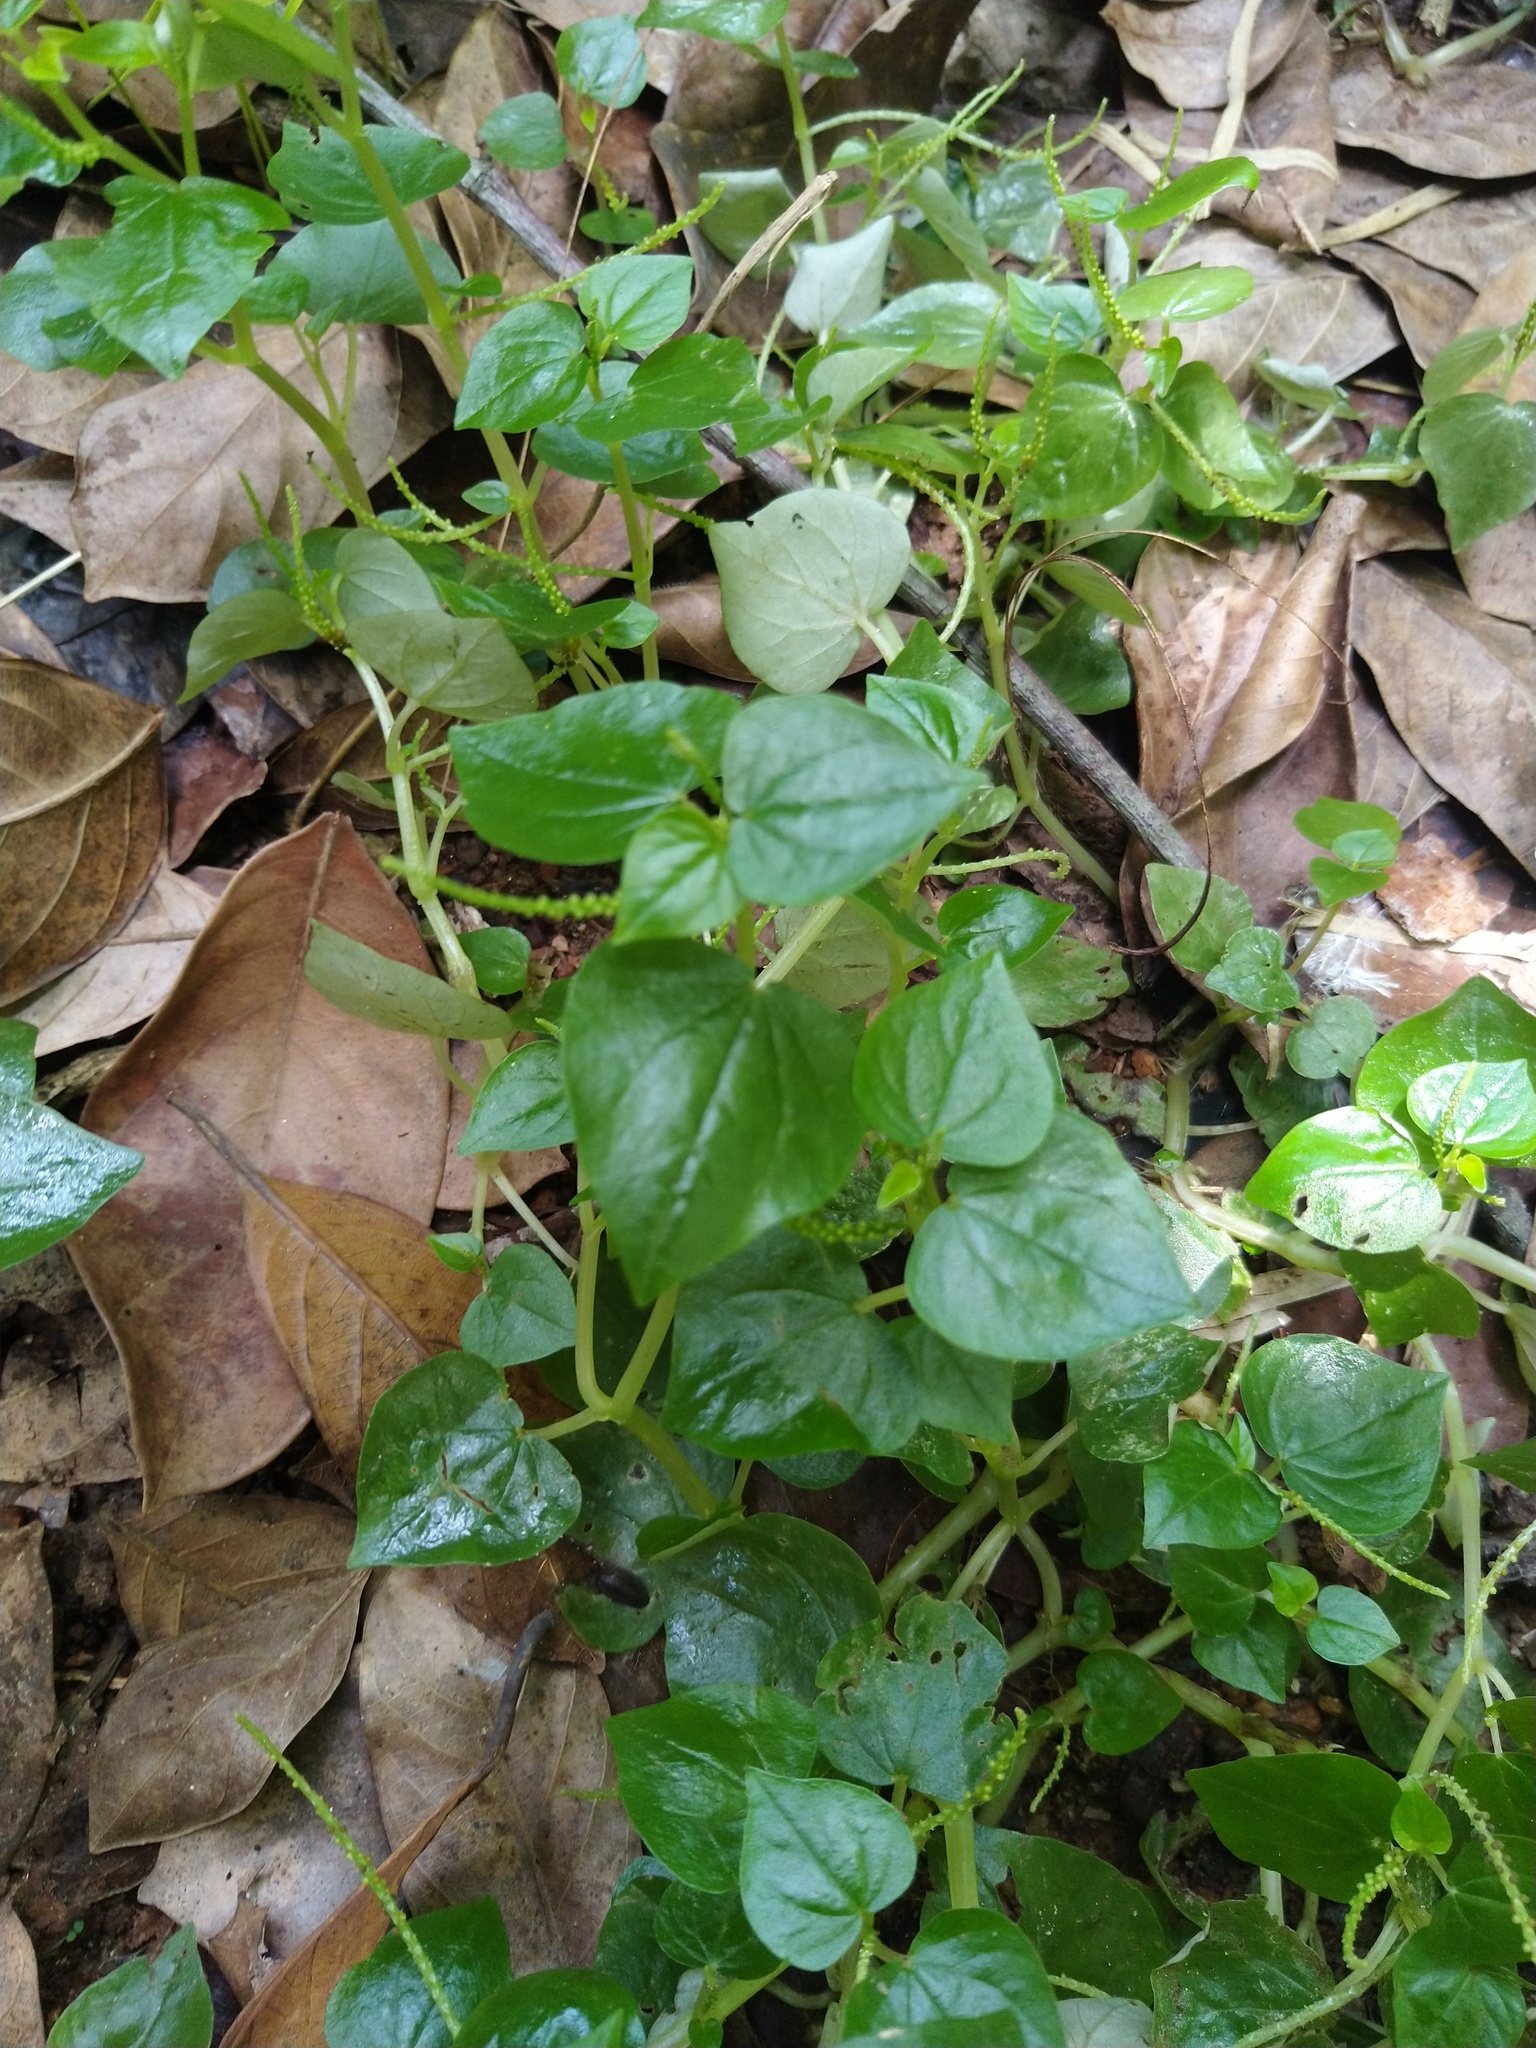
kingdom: Plantae
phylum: Tracheophyta
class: Magnoliopsida
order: Piperales
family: Piperaceae
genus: Peperomia
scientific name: Peperomia pellucida
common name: Man to man
